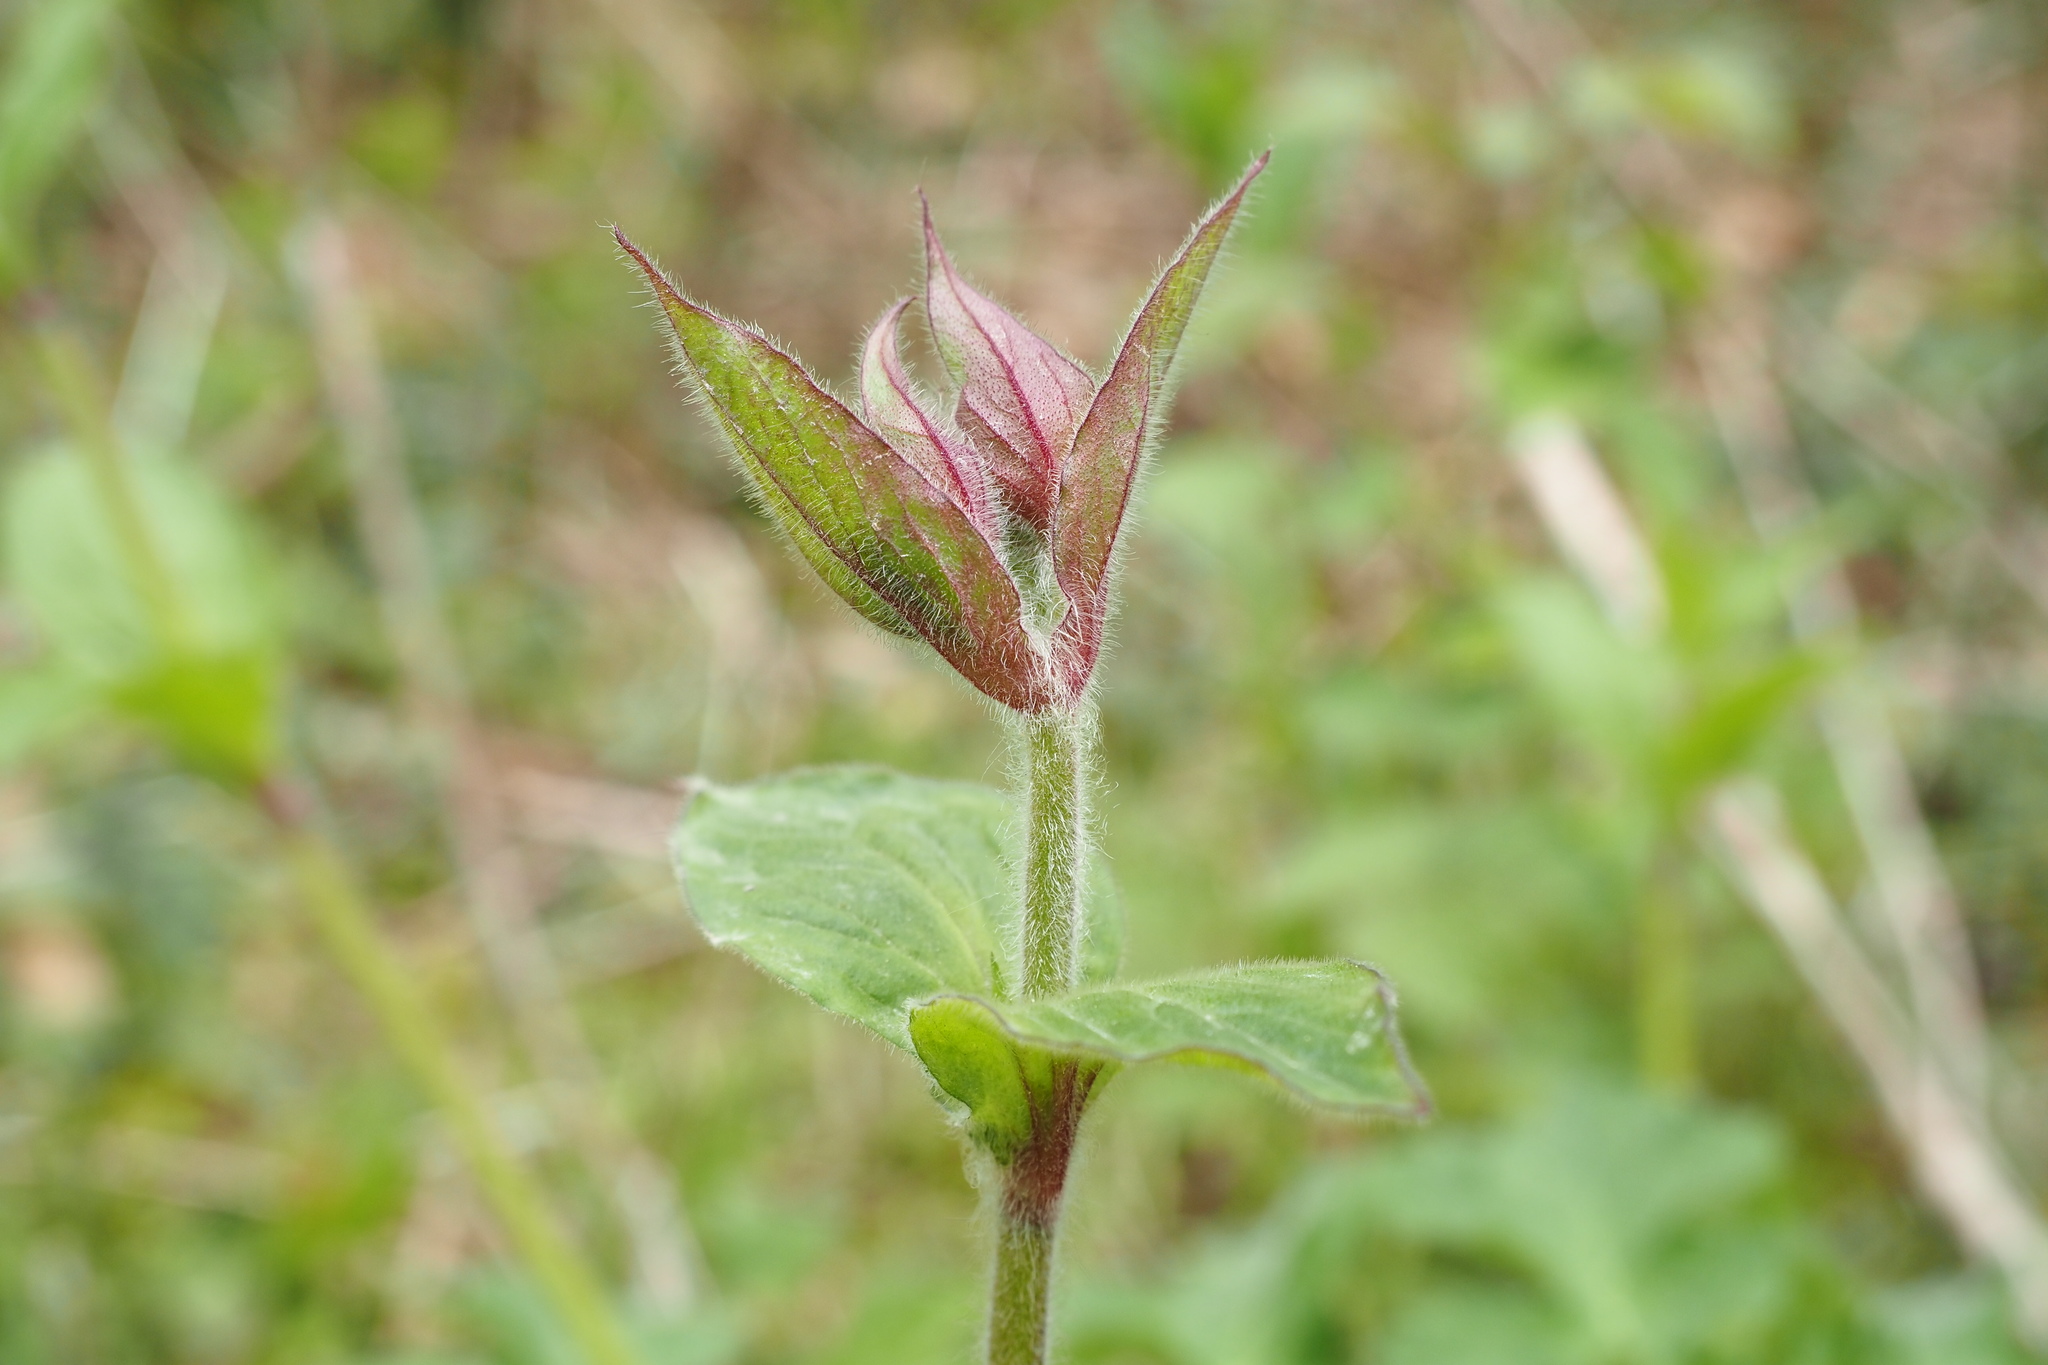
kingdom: Plantae
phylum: Tracheophyta
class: Magnoliopsida
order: Caryophyllales
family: Caryophyllaceae
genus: Silene
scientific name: Silene dioica
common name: Red campion
